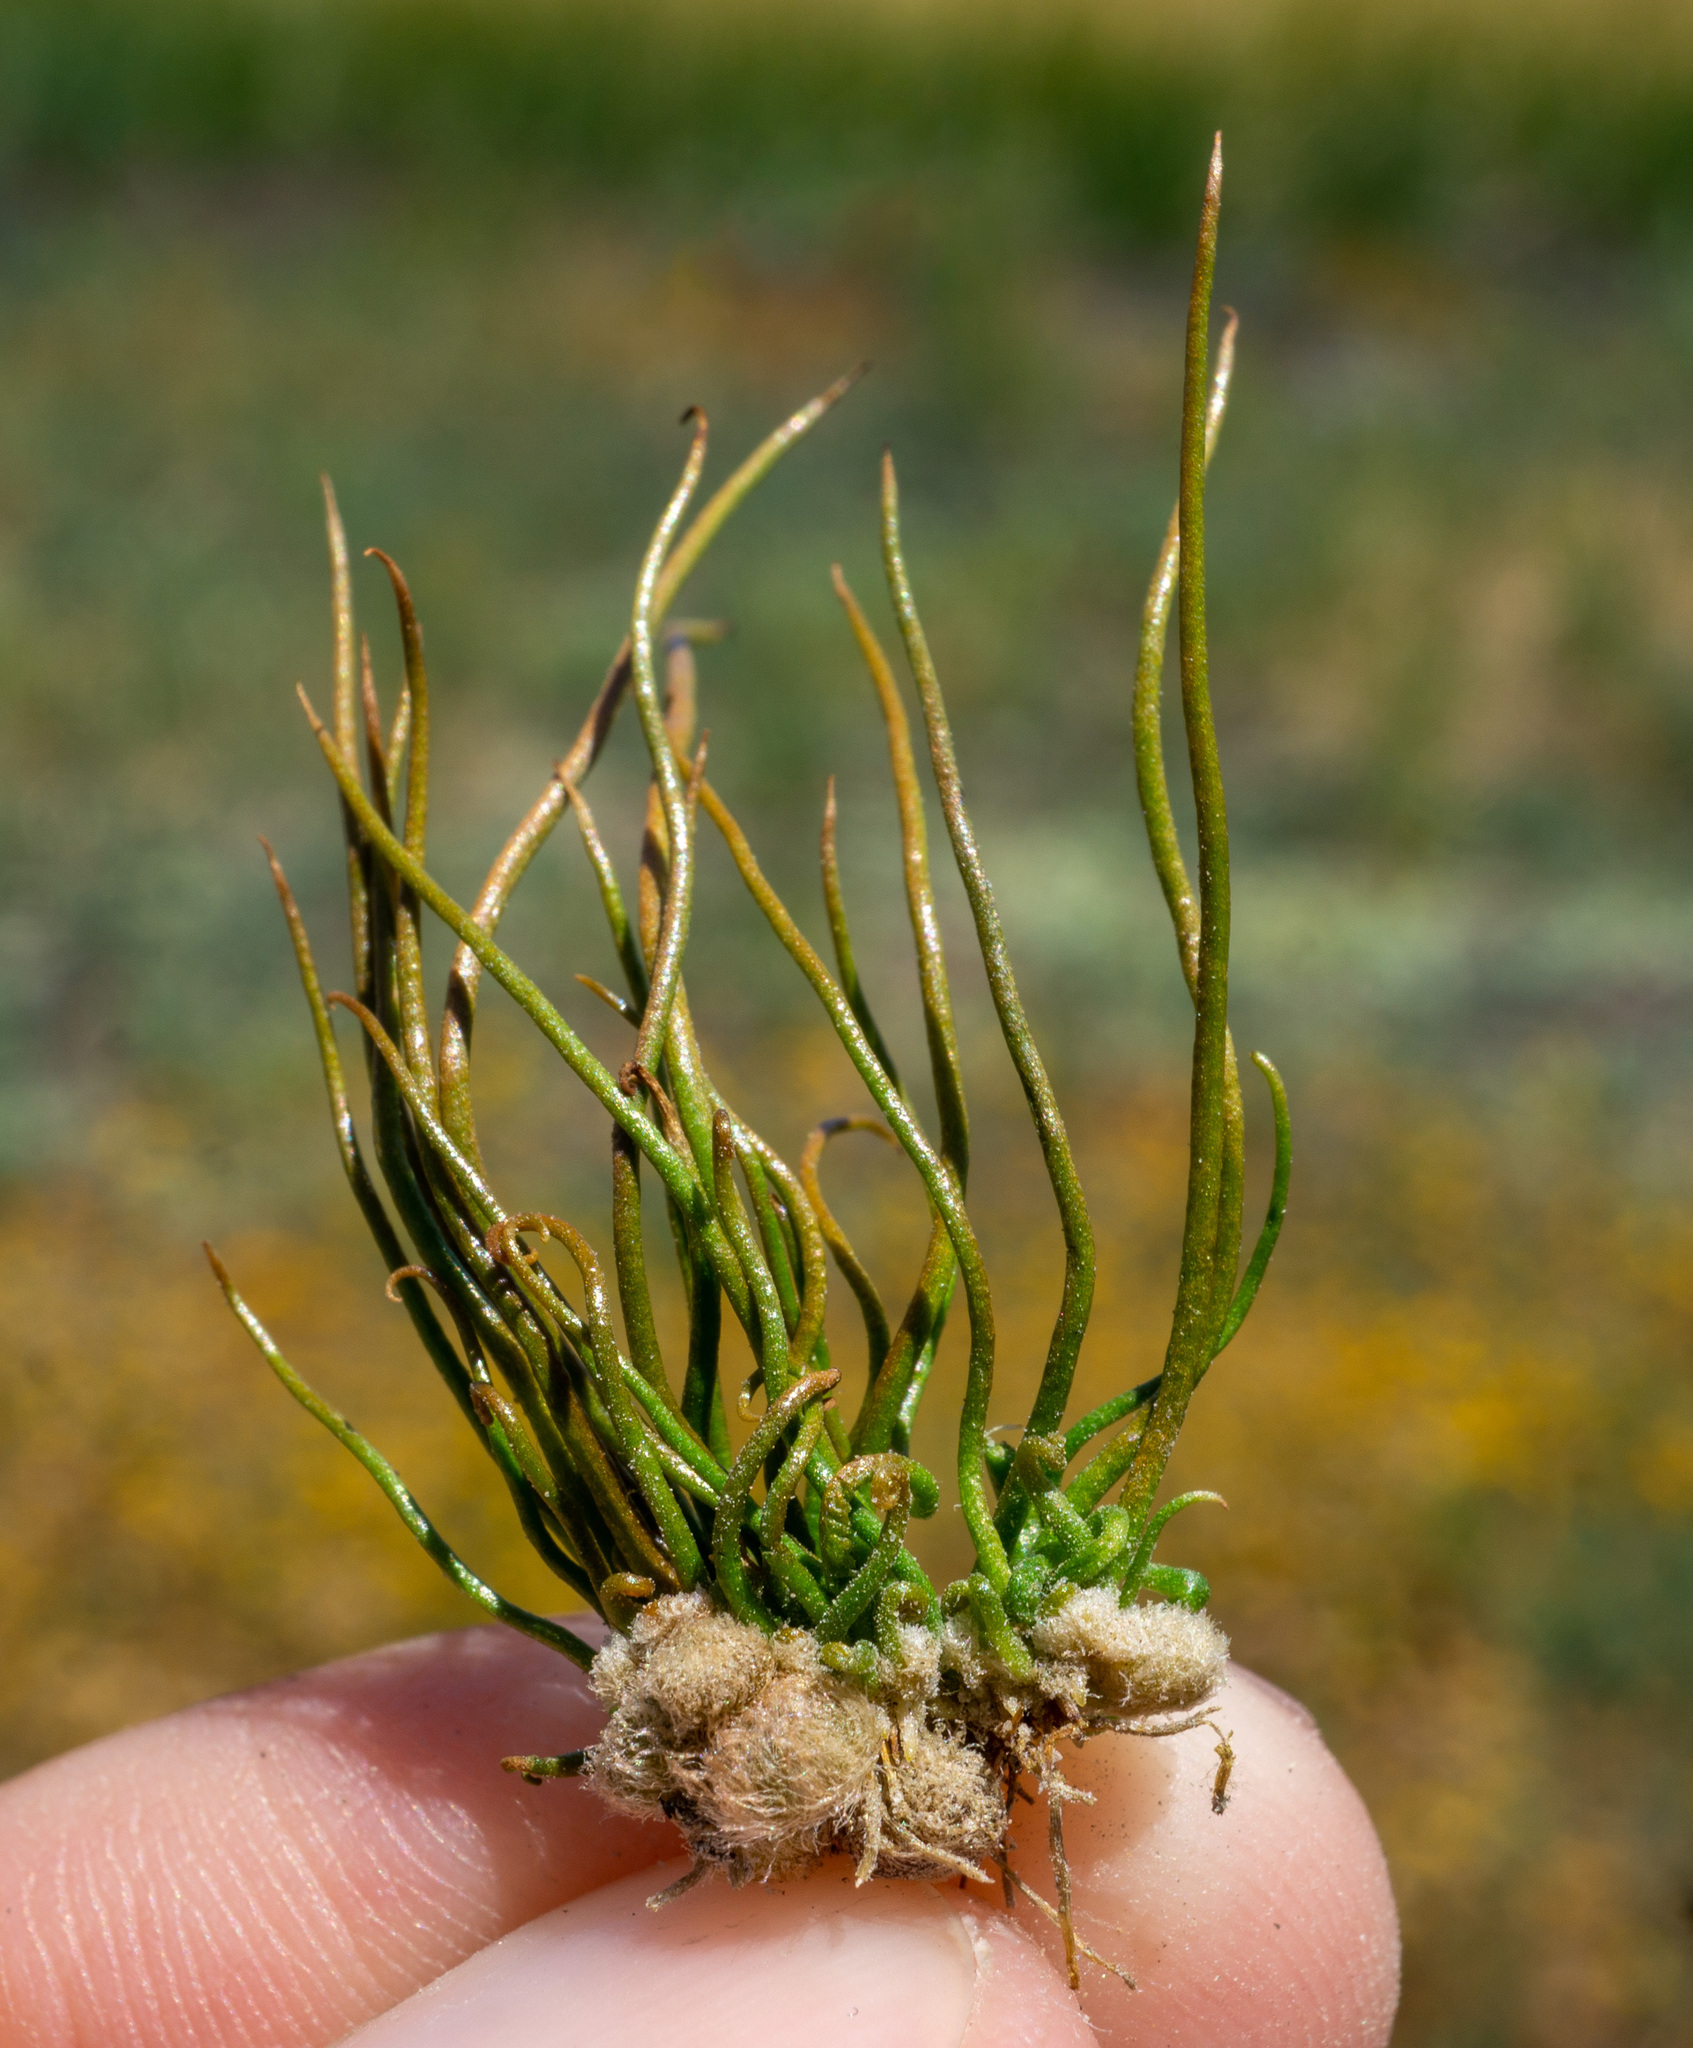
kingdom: Plantae
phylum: Tracheophyta
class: Polypodiopsida
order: Salviniales
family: Marsileaceae
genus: Pilularia
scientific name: Pilularia americana
